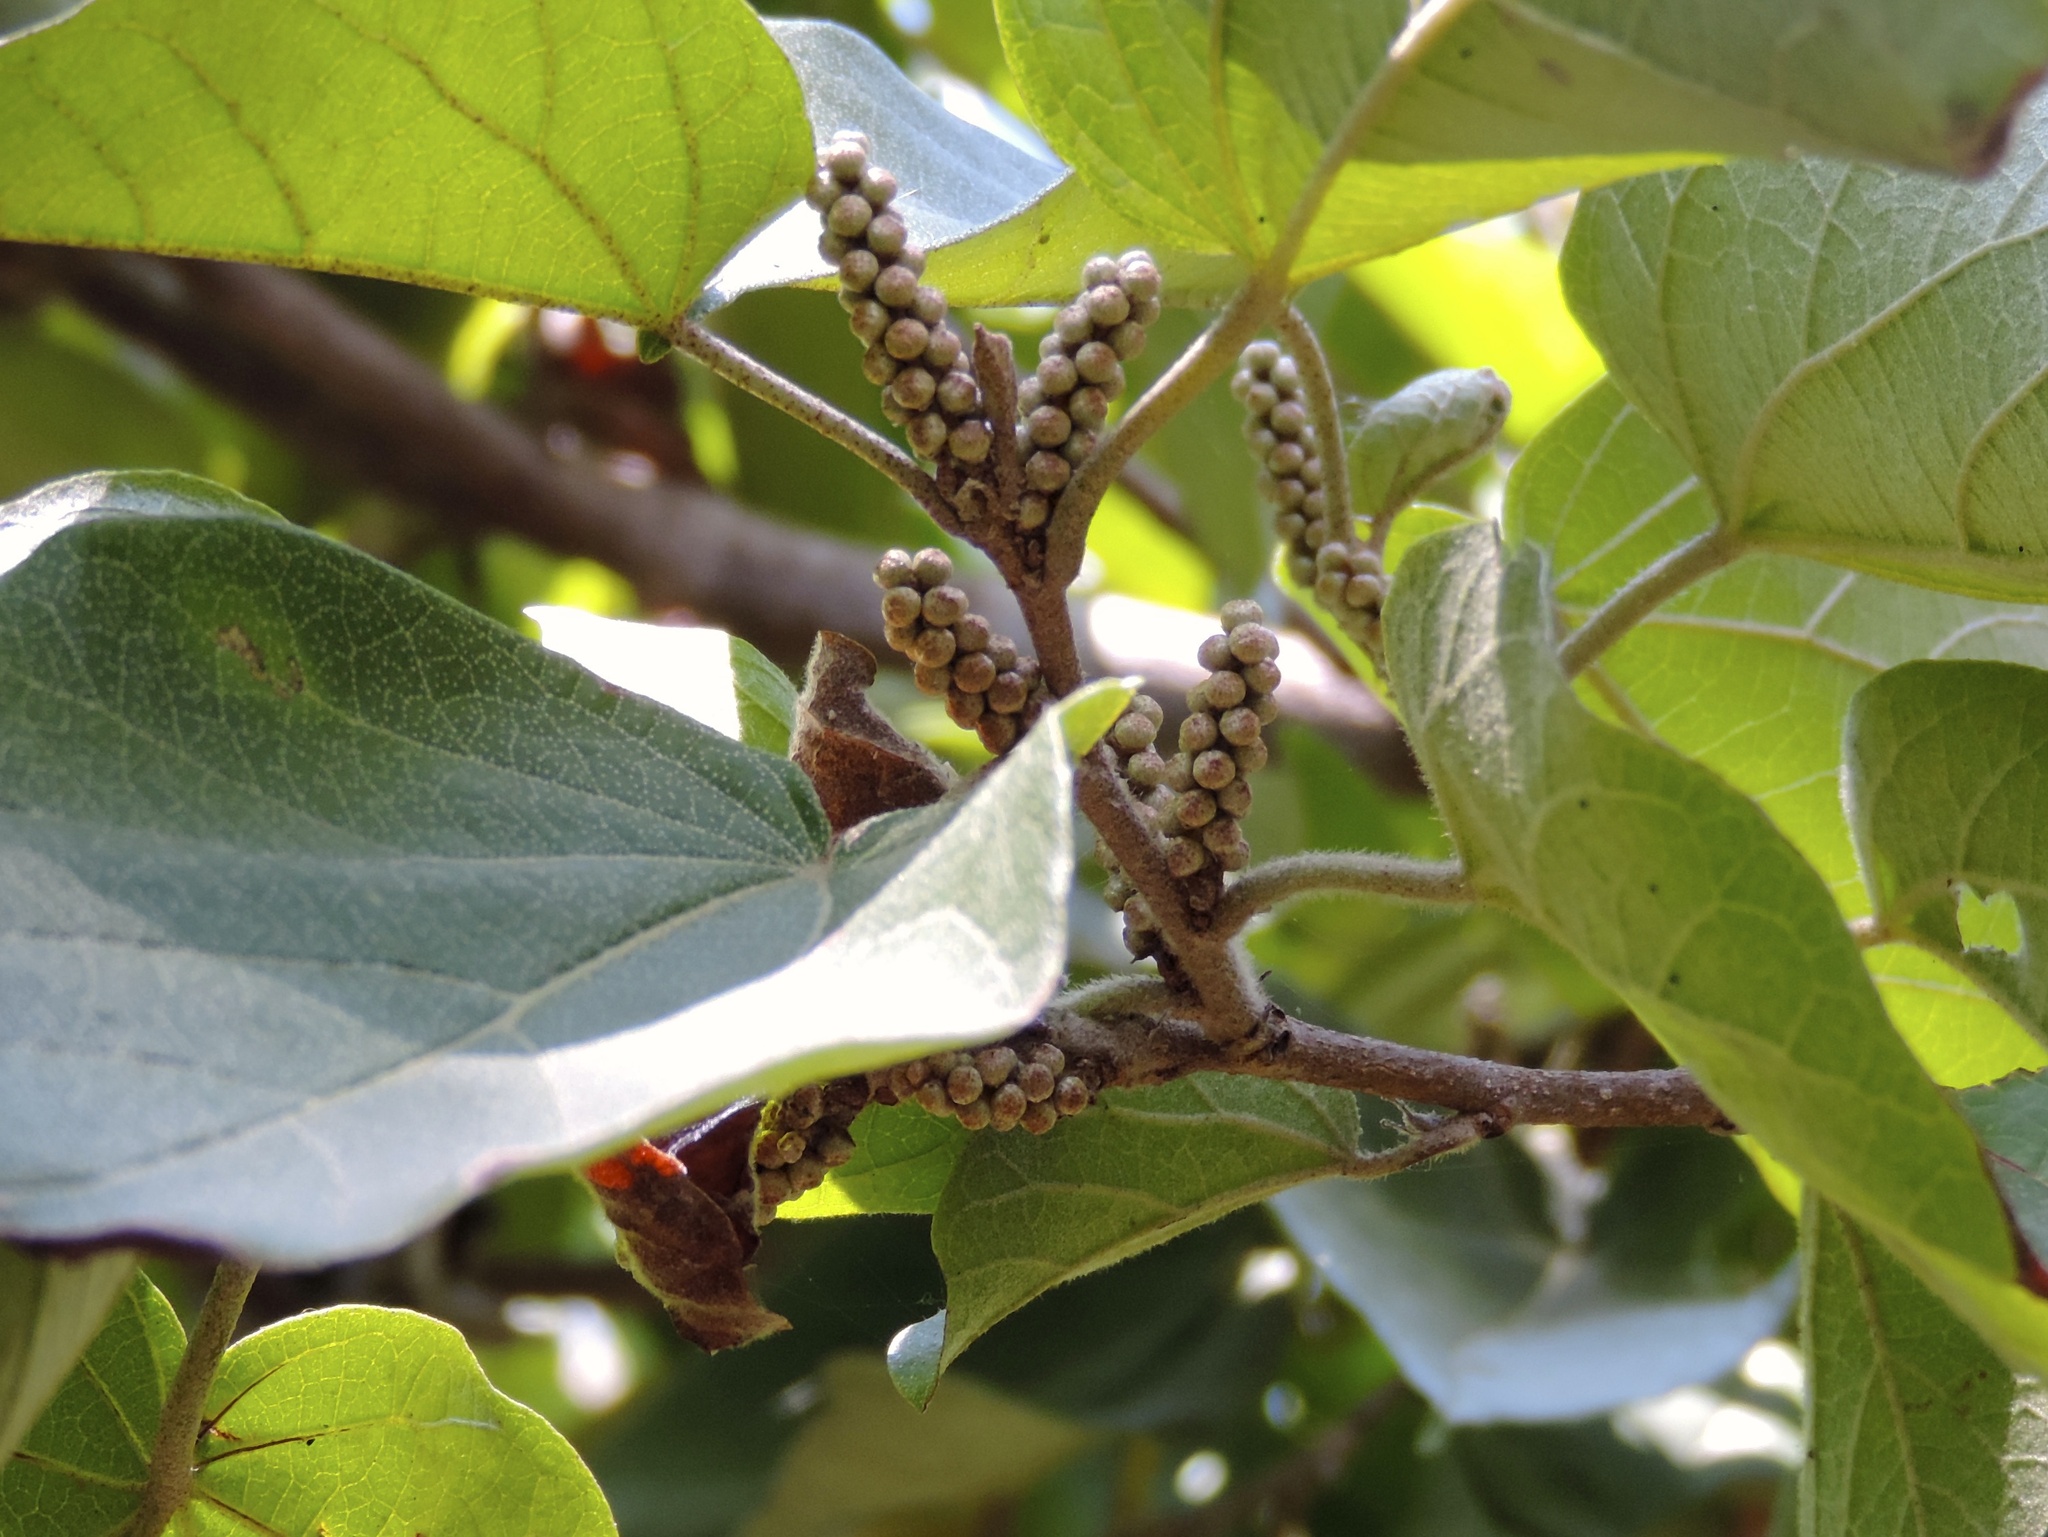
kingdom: Plantae
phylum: Tracheophyta
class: Magnoliopsida
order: Malpighiales
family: Euphorbiaceae
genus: Croton
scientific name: Croton lindquistii
